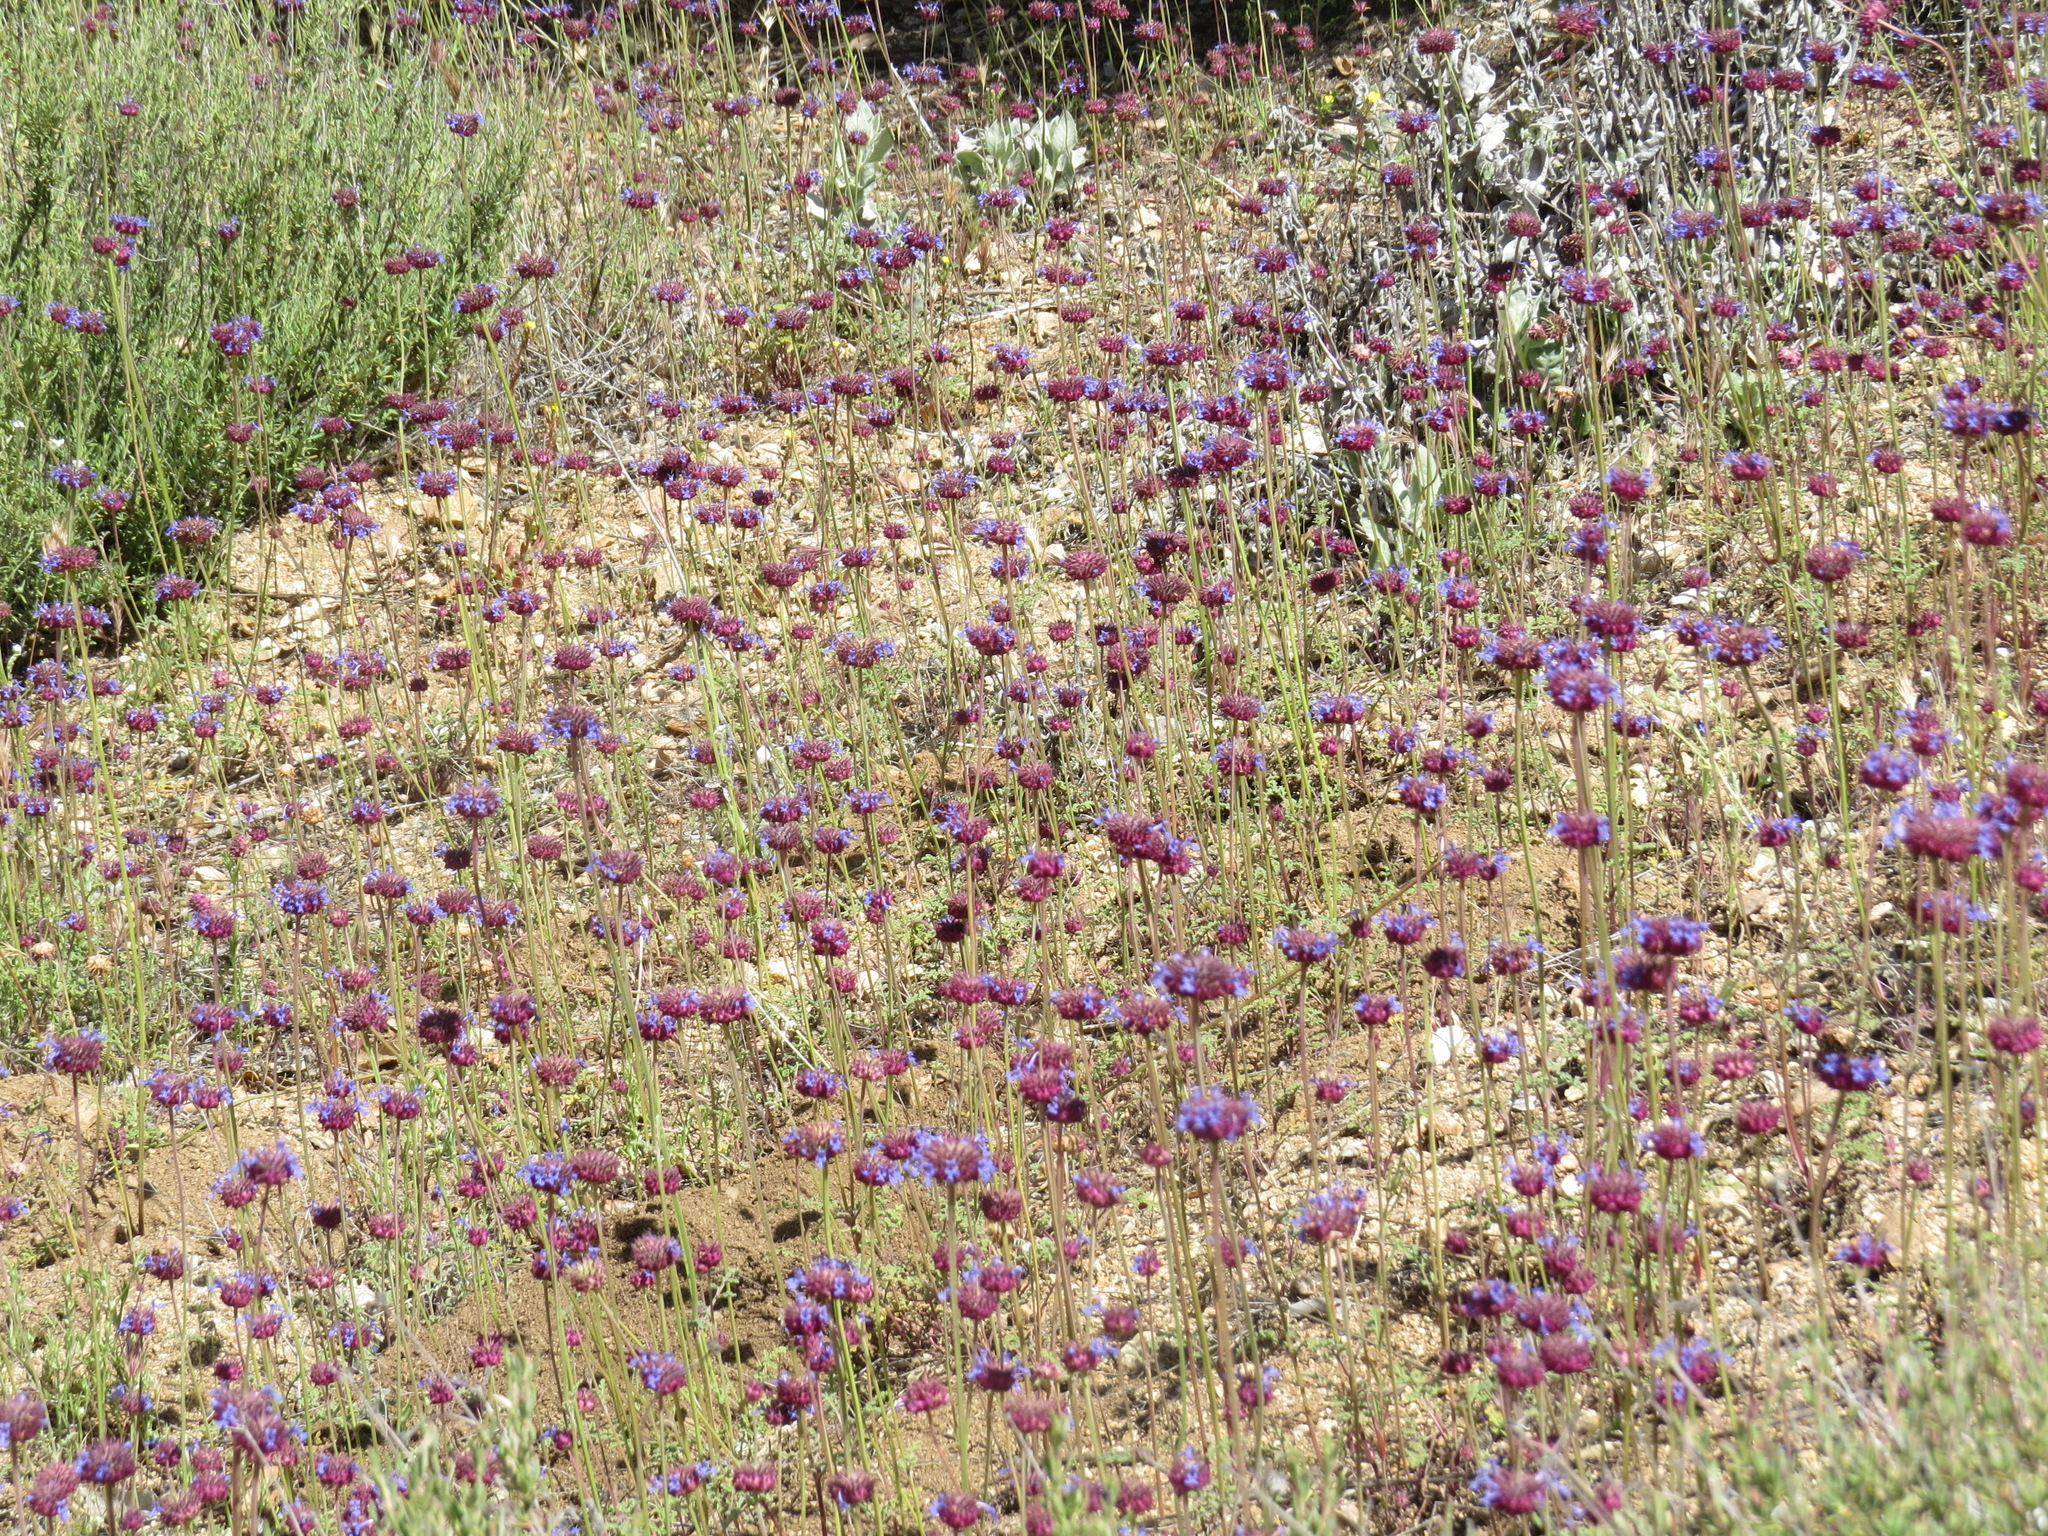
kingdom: Plantae
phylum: Tracheophyta
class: Magnoliopsida
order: Lamiales
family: Lamiaceae
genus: Salvia
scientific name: Salvia columbariae
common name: Chia
